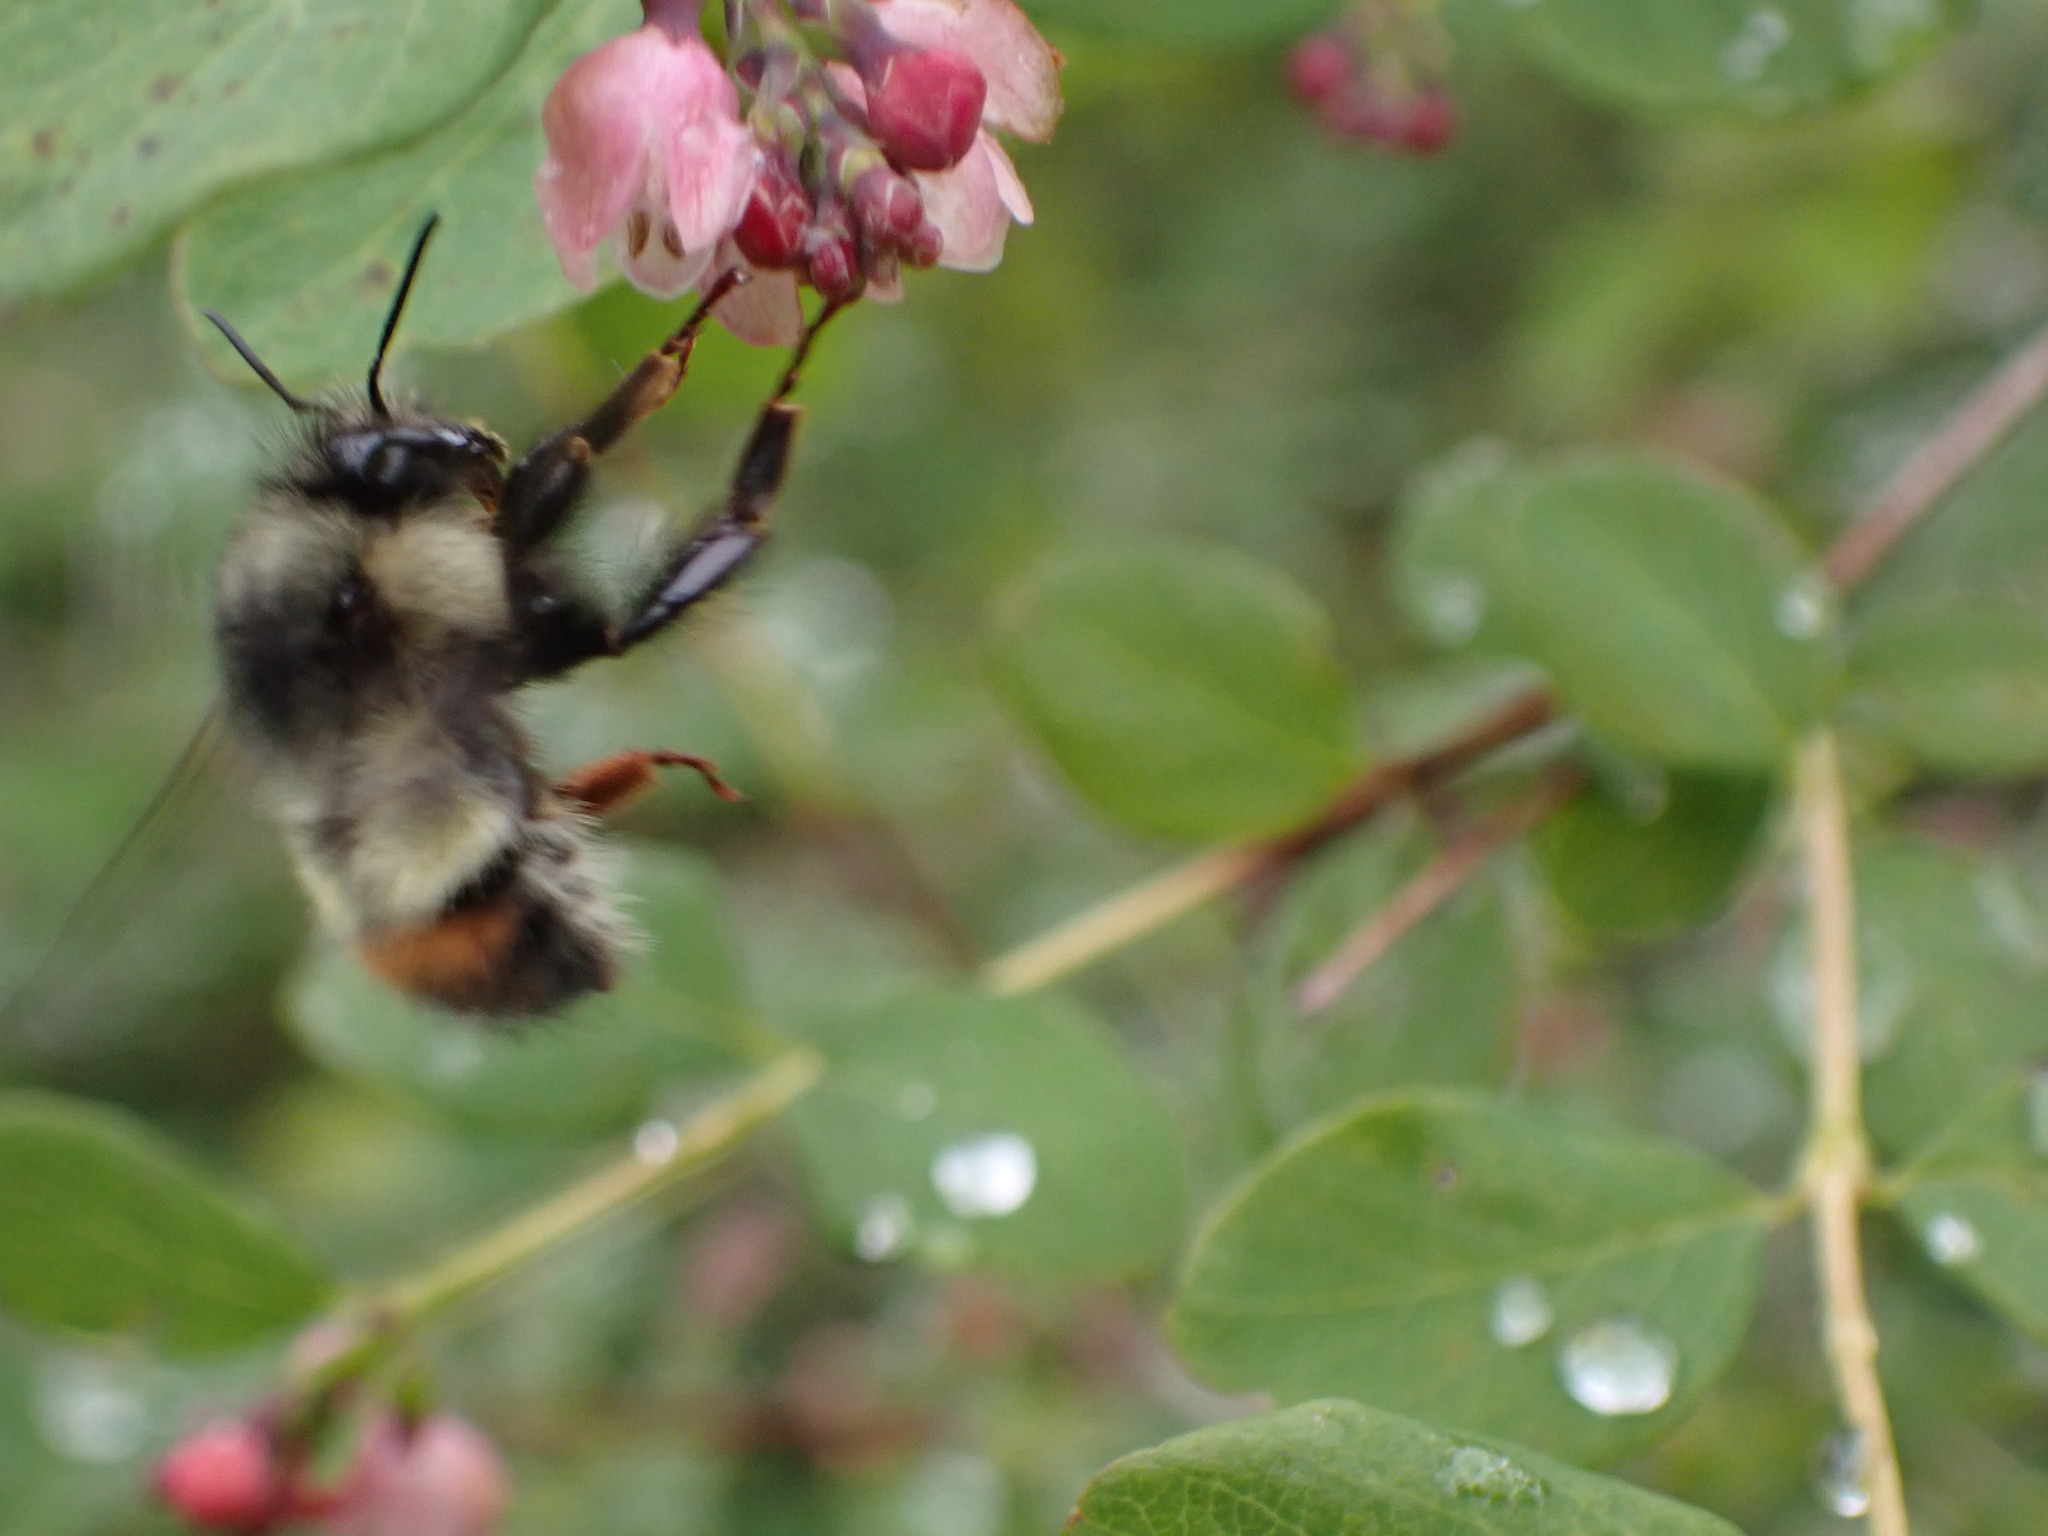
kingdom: Animalia
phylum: Arthropoda
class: Insecta
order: Hymenoptera
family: Apidae
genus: Bombus
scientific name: Bombus flavifrons
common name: Yellow head bumble bee
